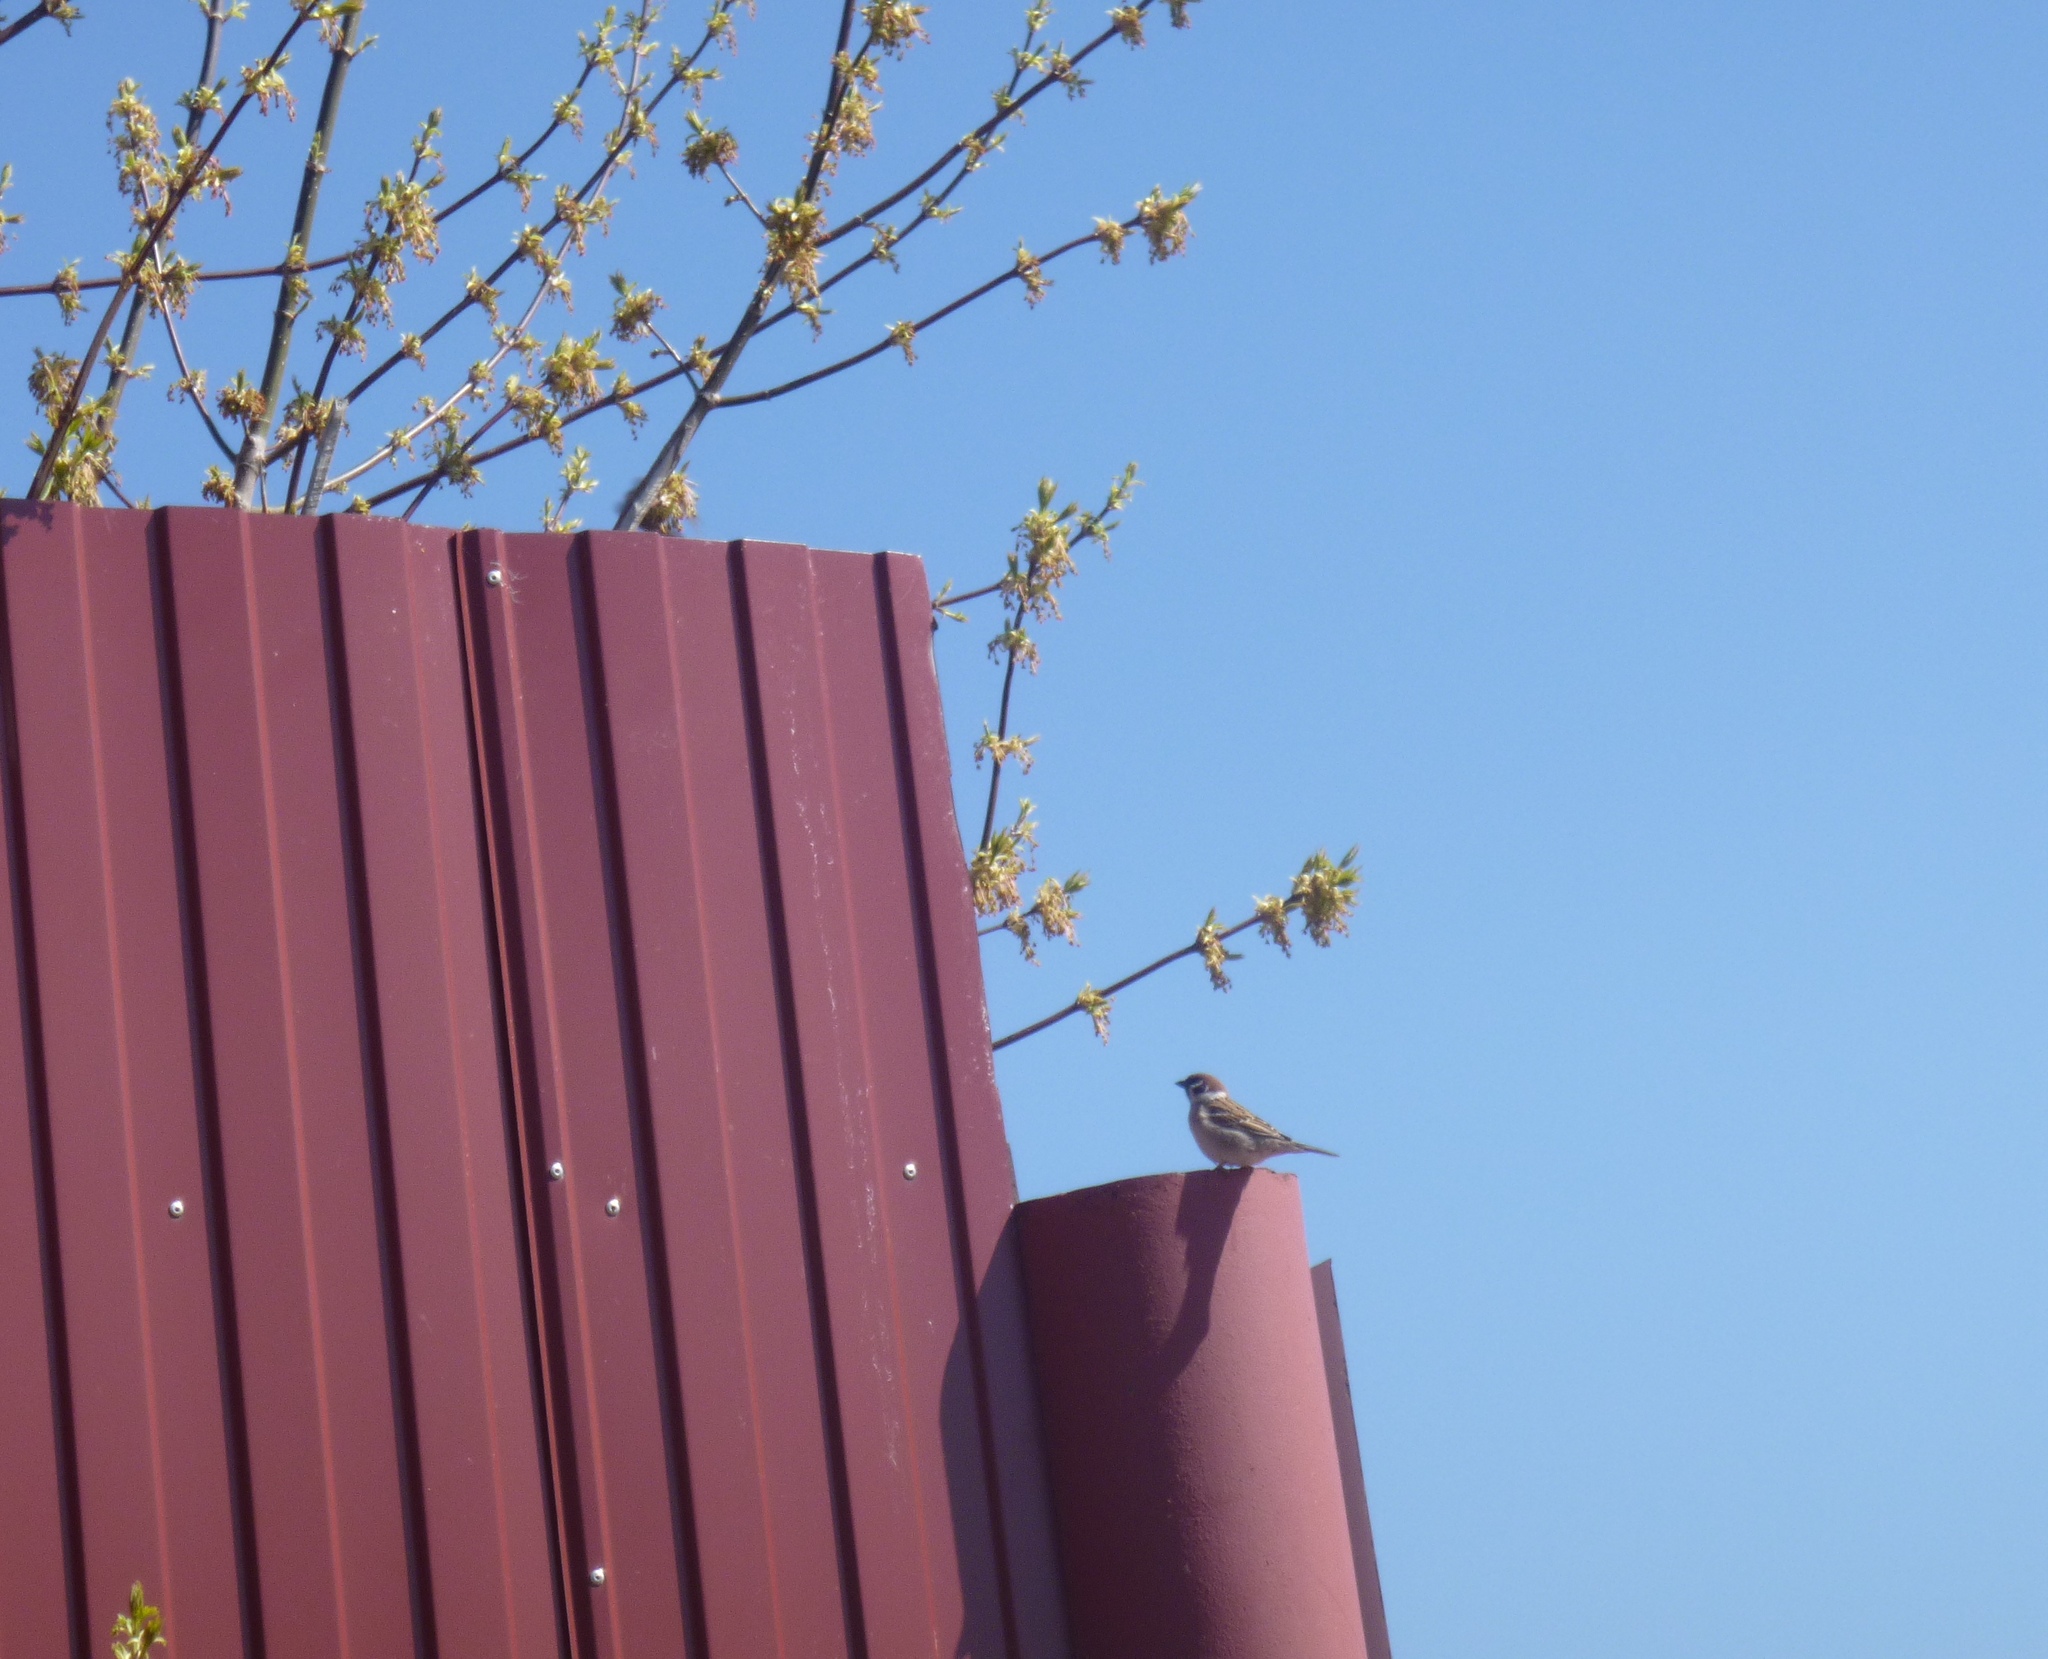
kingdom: Animalia
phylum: Chordata
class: Aves
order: Passeriformes
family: Passeridae
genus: Passer
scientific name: Passer montanus
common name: Eurasian tree sparrow
